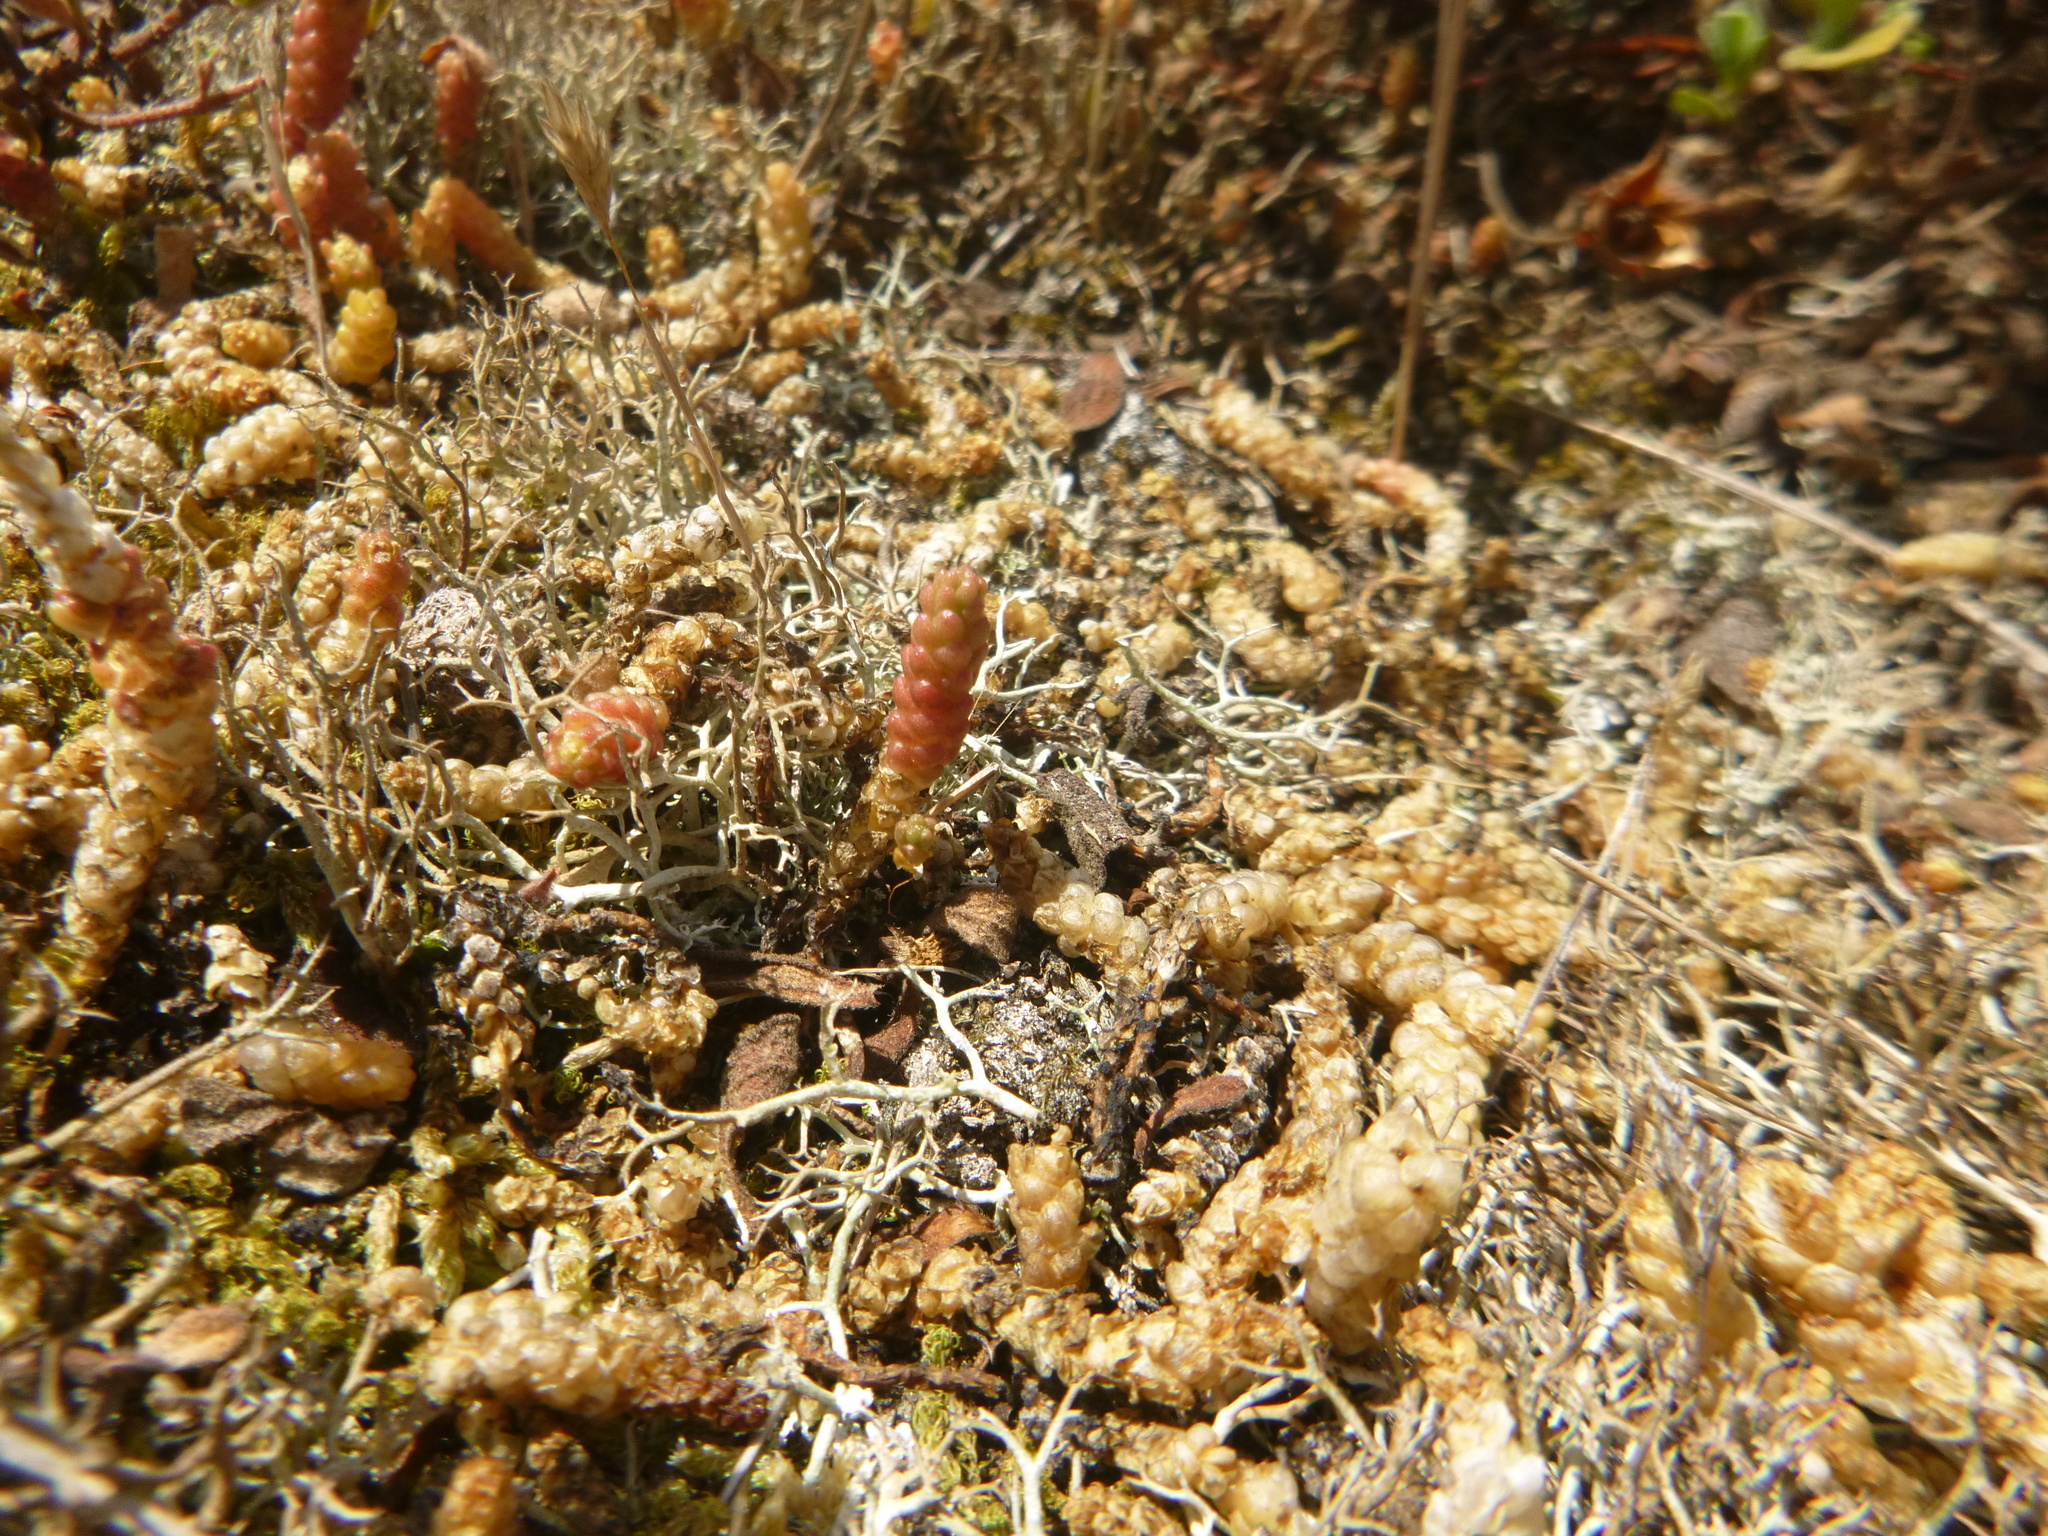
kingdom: Plantae
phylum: Tracheophyta
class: Magnoliopsida
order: Saxifragales
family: Crassulaceae
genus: Sedum
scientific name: Sedum acre
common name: Biting stonecrop
